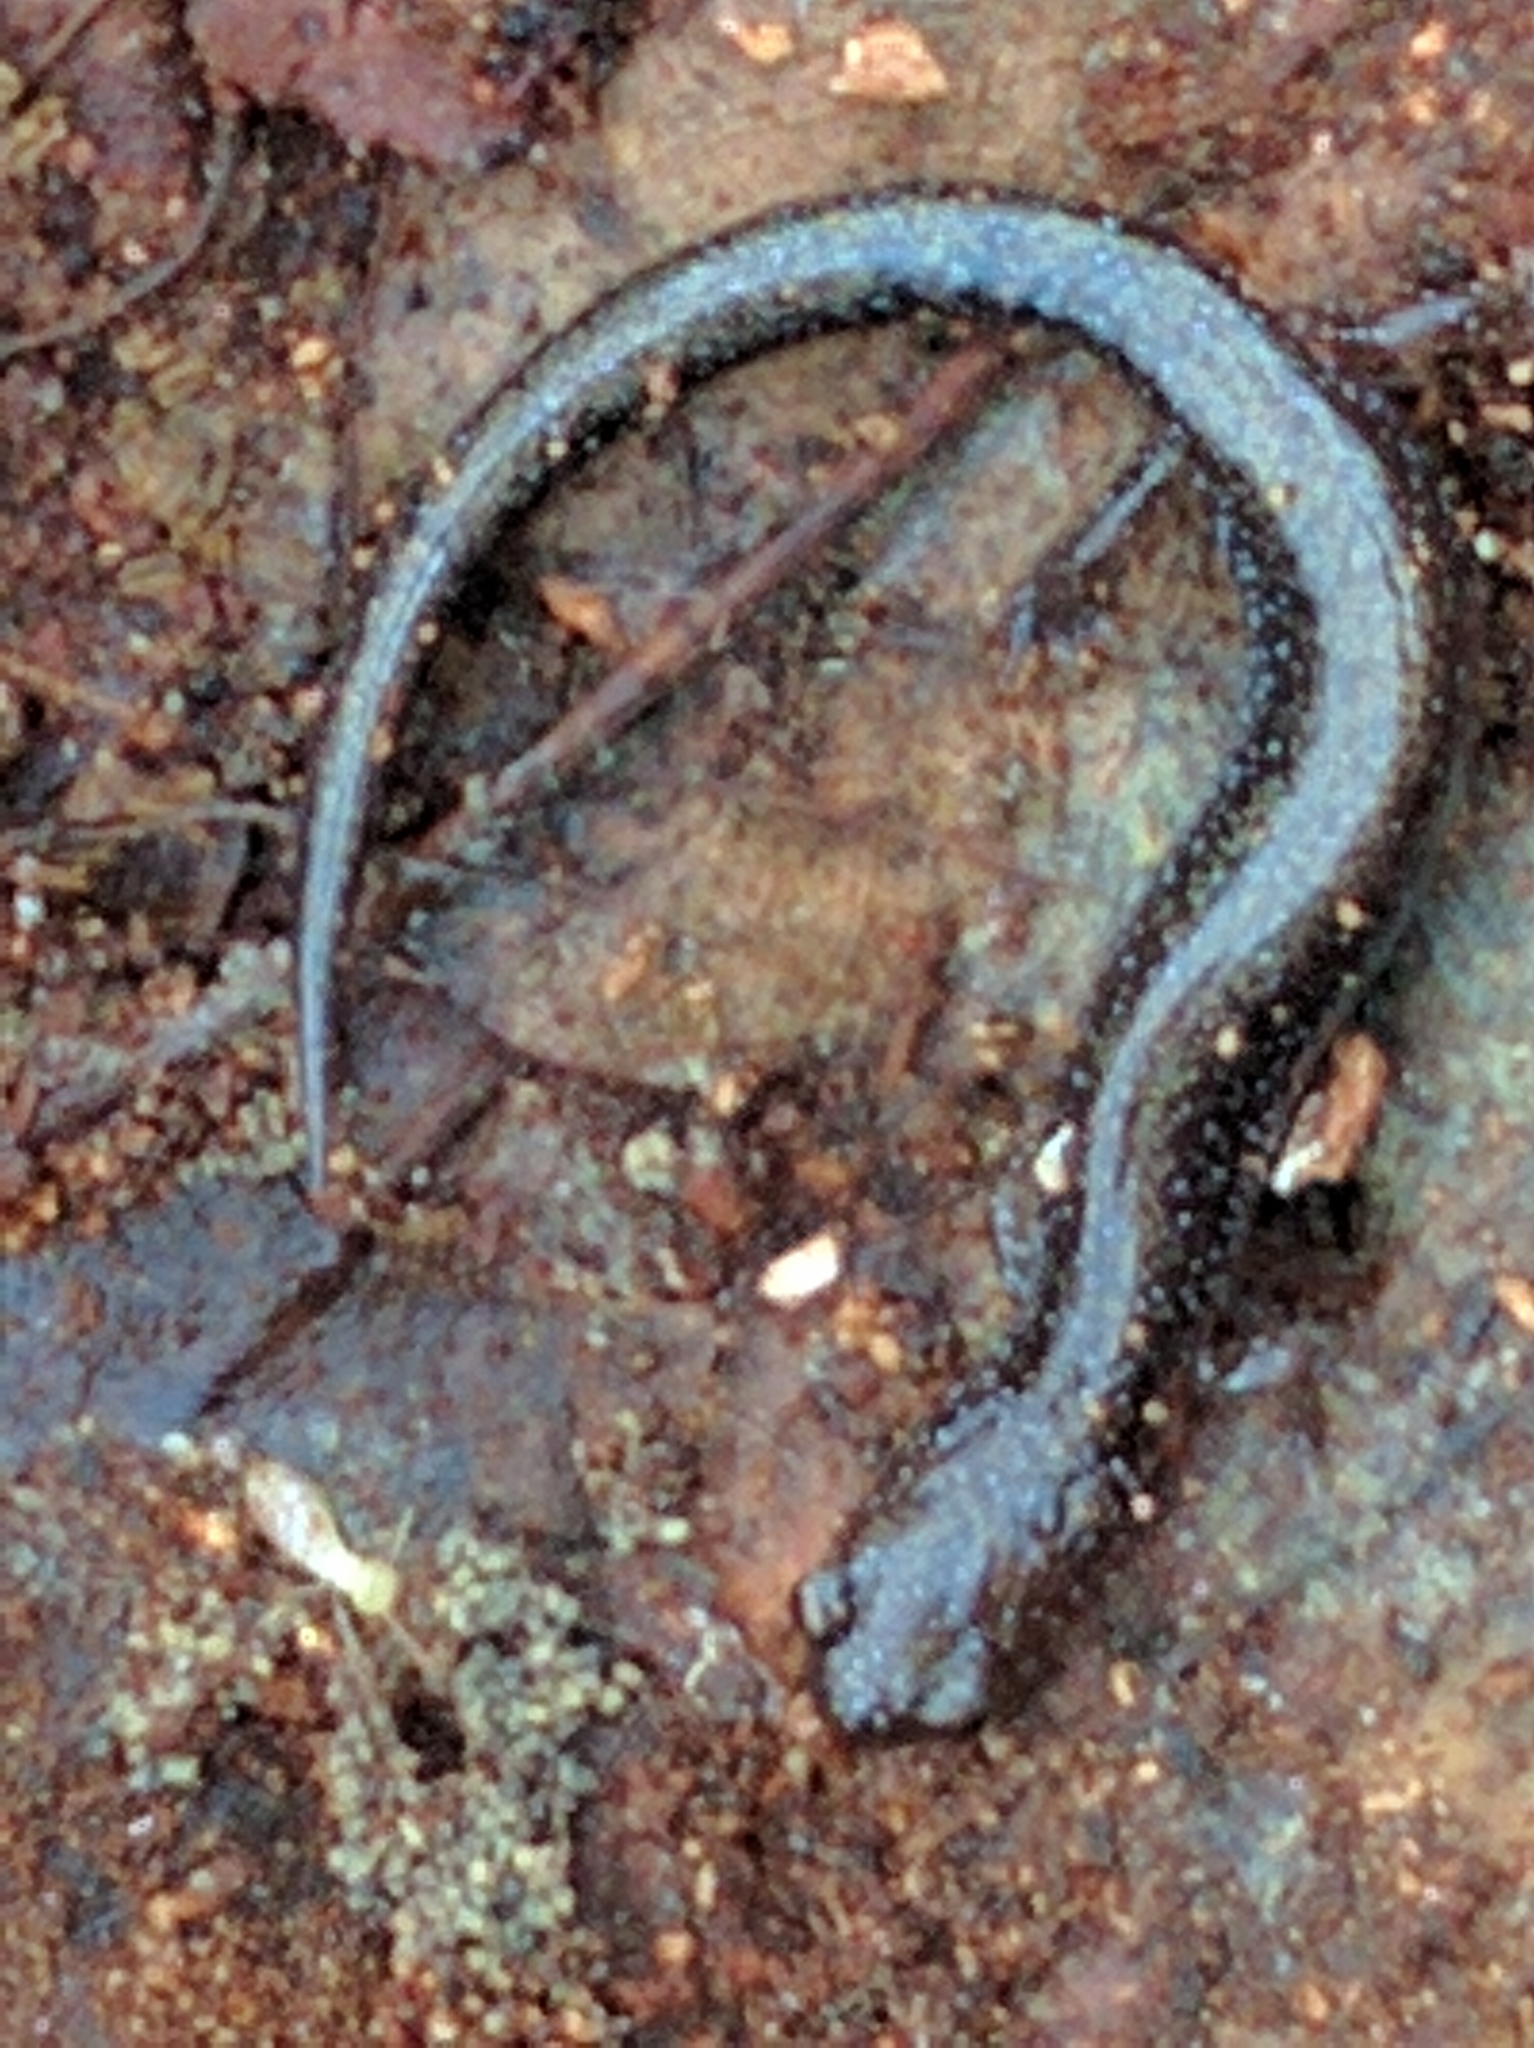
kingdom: Animalia
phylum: Chordata
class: Amphibia
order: Caudata
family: Plethodontidae
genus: Plethodon
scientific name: Plethodon cinereus
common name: Redback salamander
